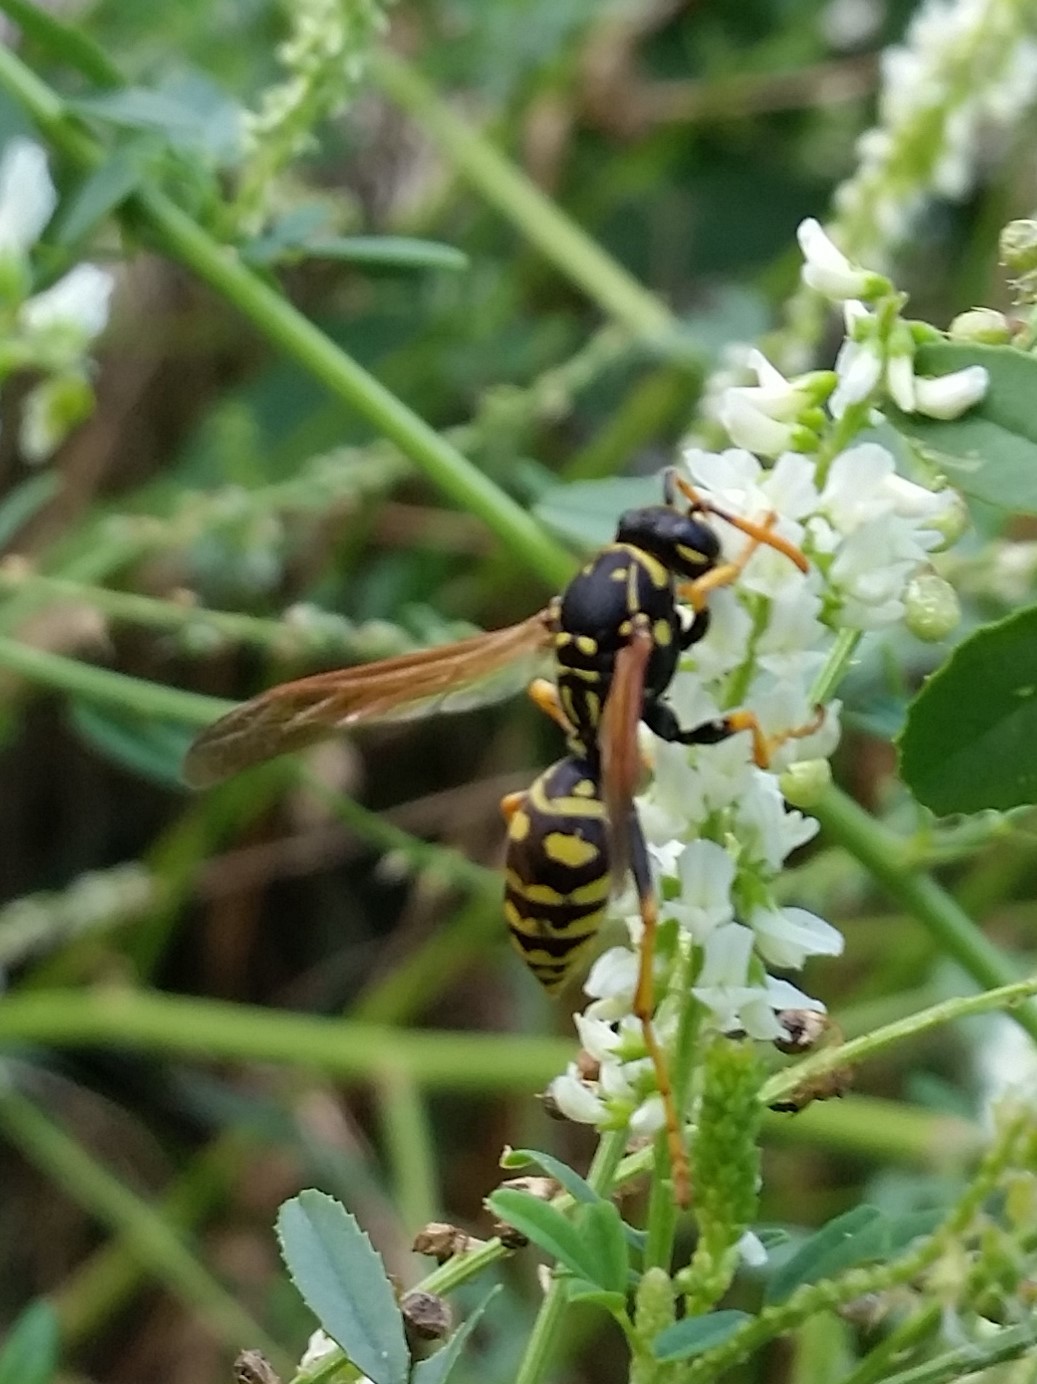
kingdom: Animalia
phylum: Arthropoda
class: Insecta
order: Hymenoptera
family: Eumenidae
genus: Polistes
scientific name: Polistes dominula
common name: Paper wasp
